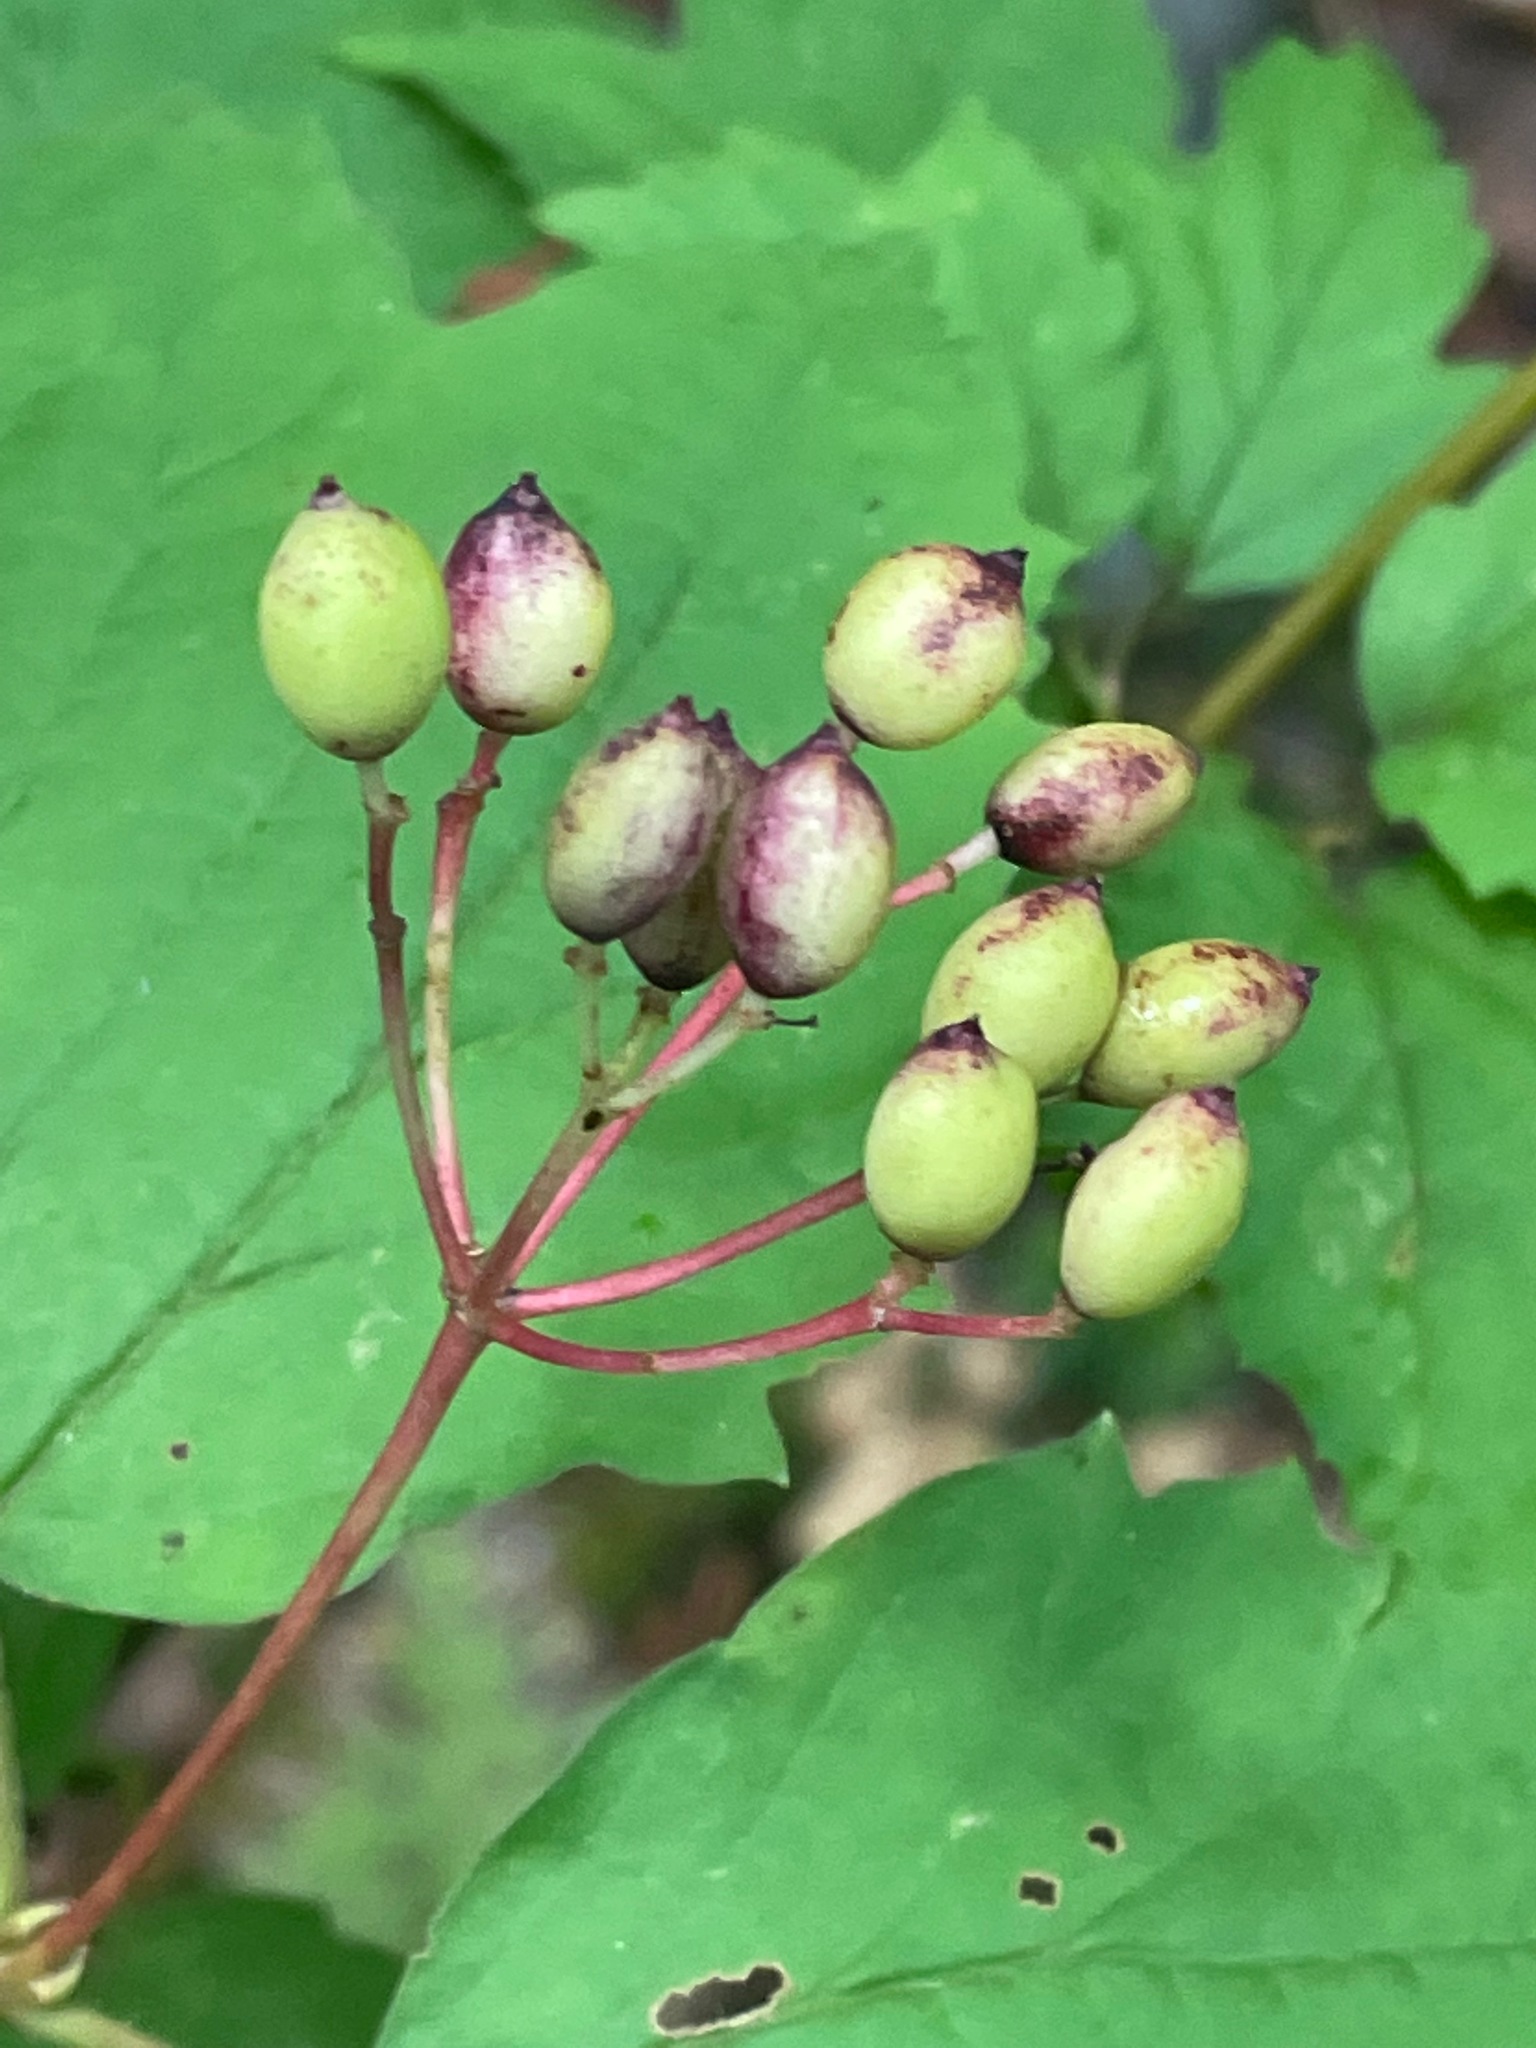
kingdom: Plantae
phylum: Tracheophyta
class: Magnoliopsida
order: Dipsacales
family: Viburnaceae
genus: Viburnum
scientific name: Viburnum acerifolium
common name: Dockmackie
